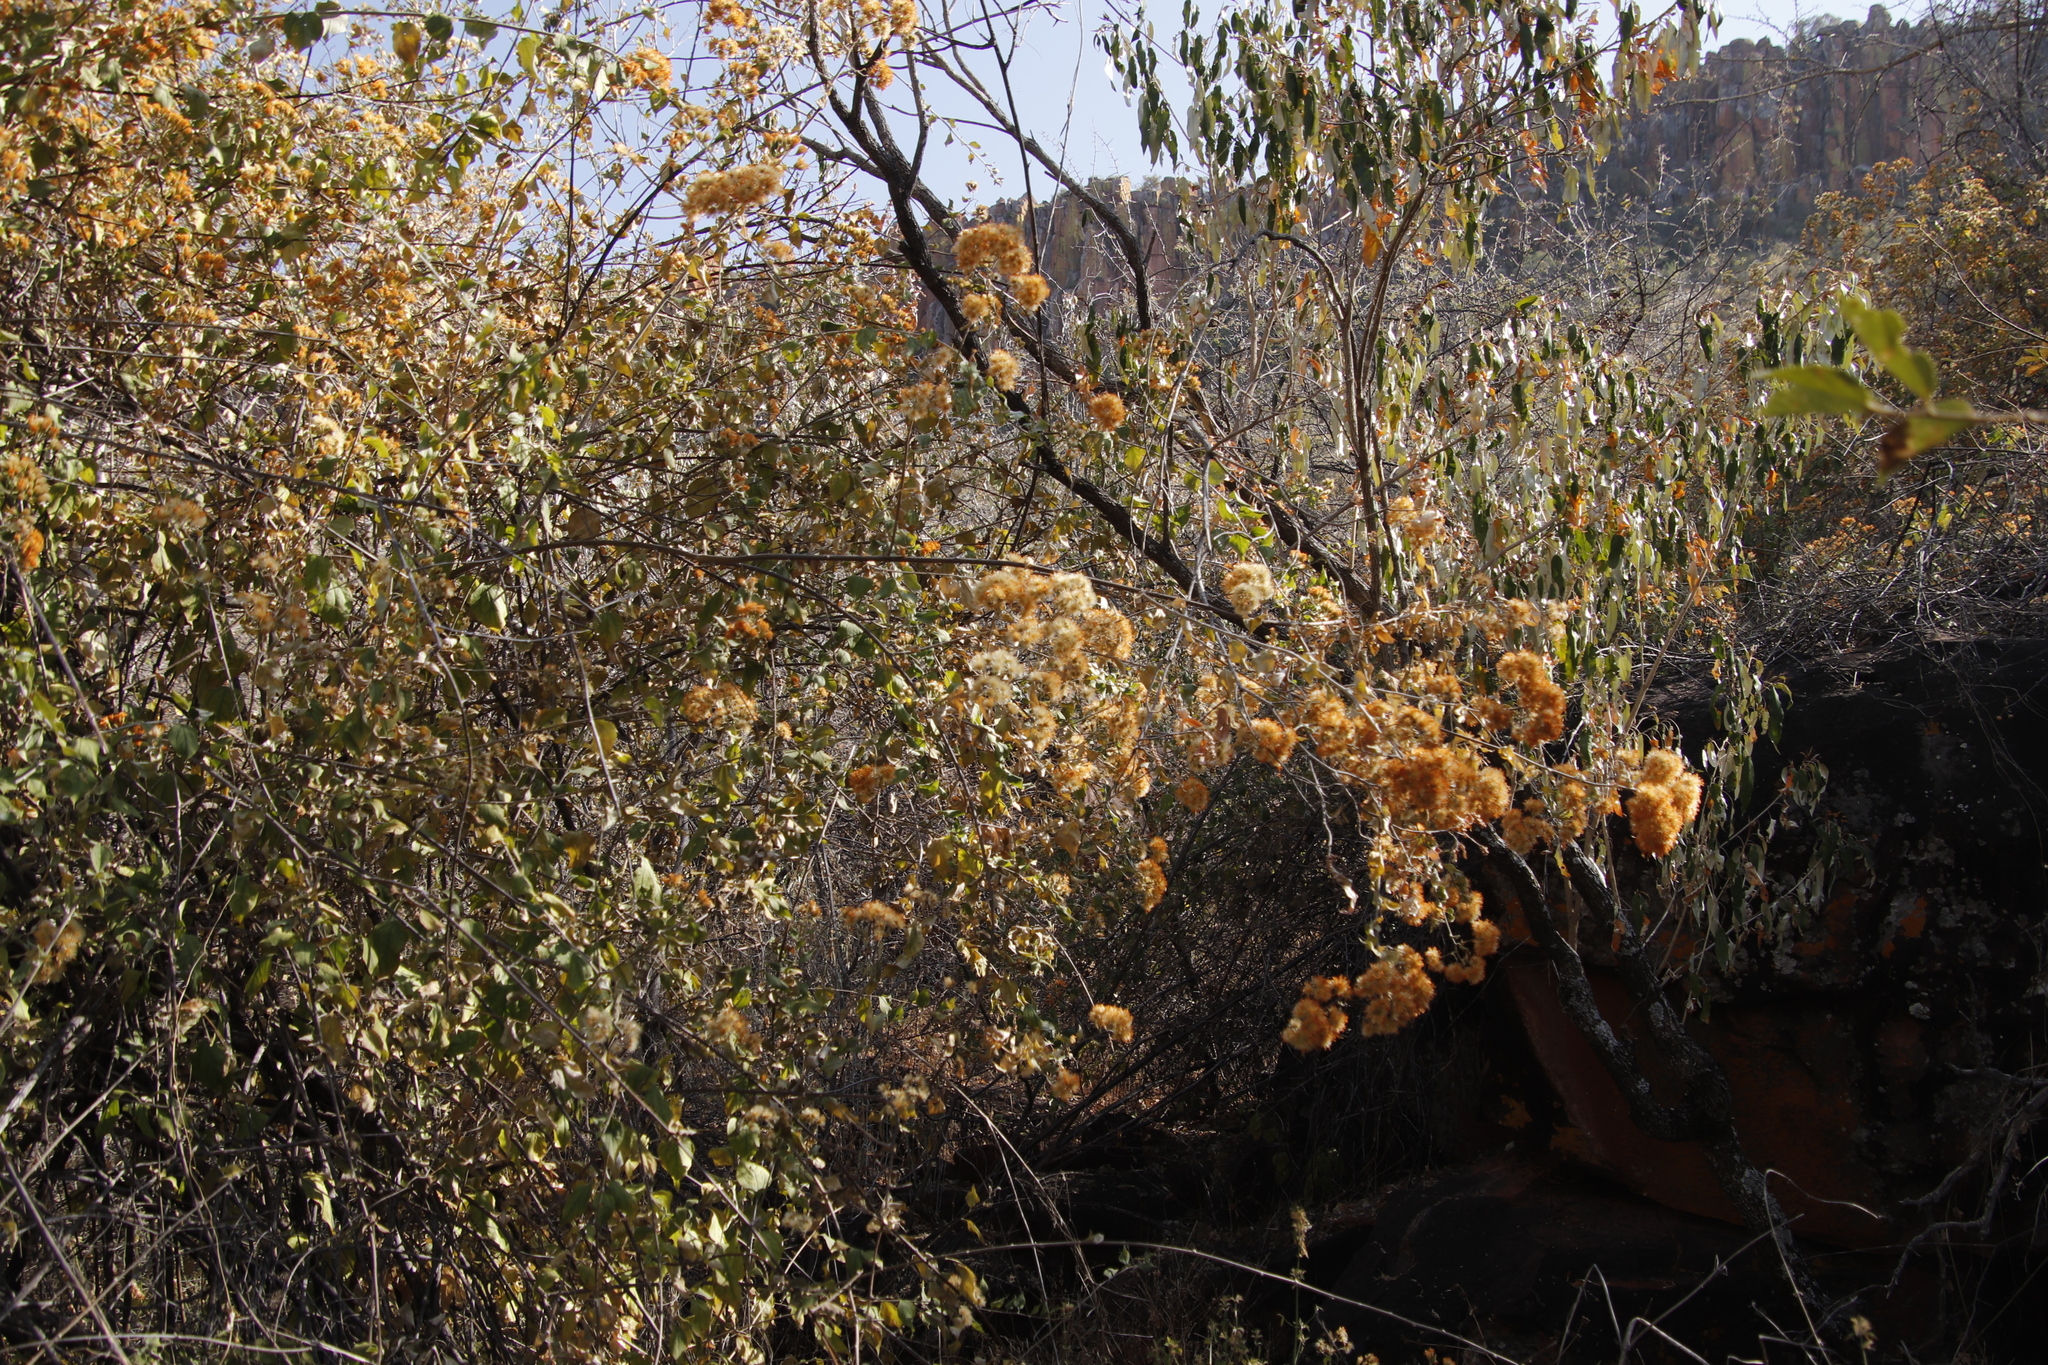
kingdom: Plantae
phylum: Tracheophyta
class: Magnoliopsida
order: Asterales
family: Asteraceae
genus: Distephanus
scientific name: Distephanus divaricatus
